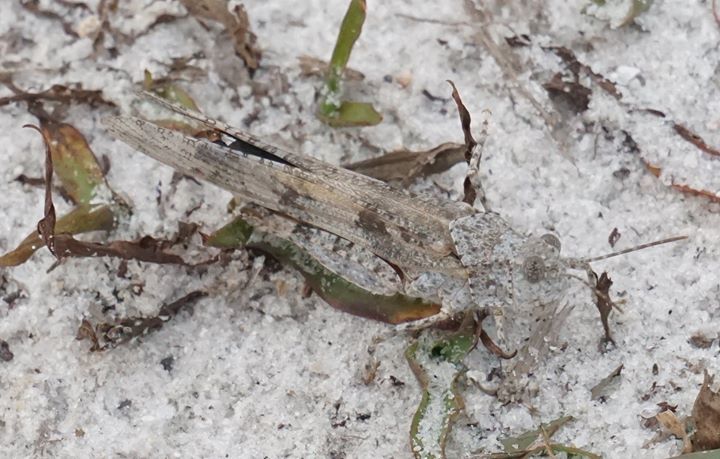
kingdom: Animalia
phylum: Arthropoda
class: Insecta
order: Orthoptera
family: Acrididae
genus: Trimerotropis
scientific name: Trimerotropis maritima
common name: Seaside locust
